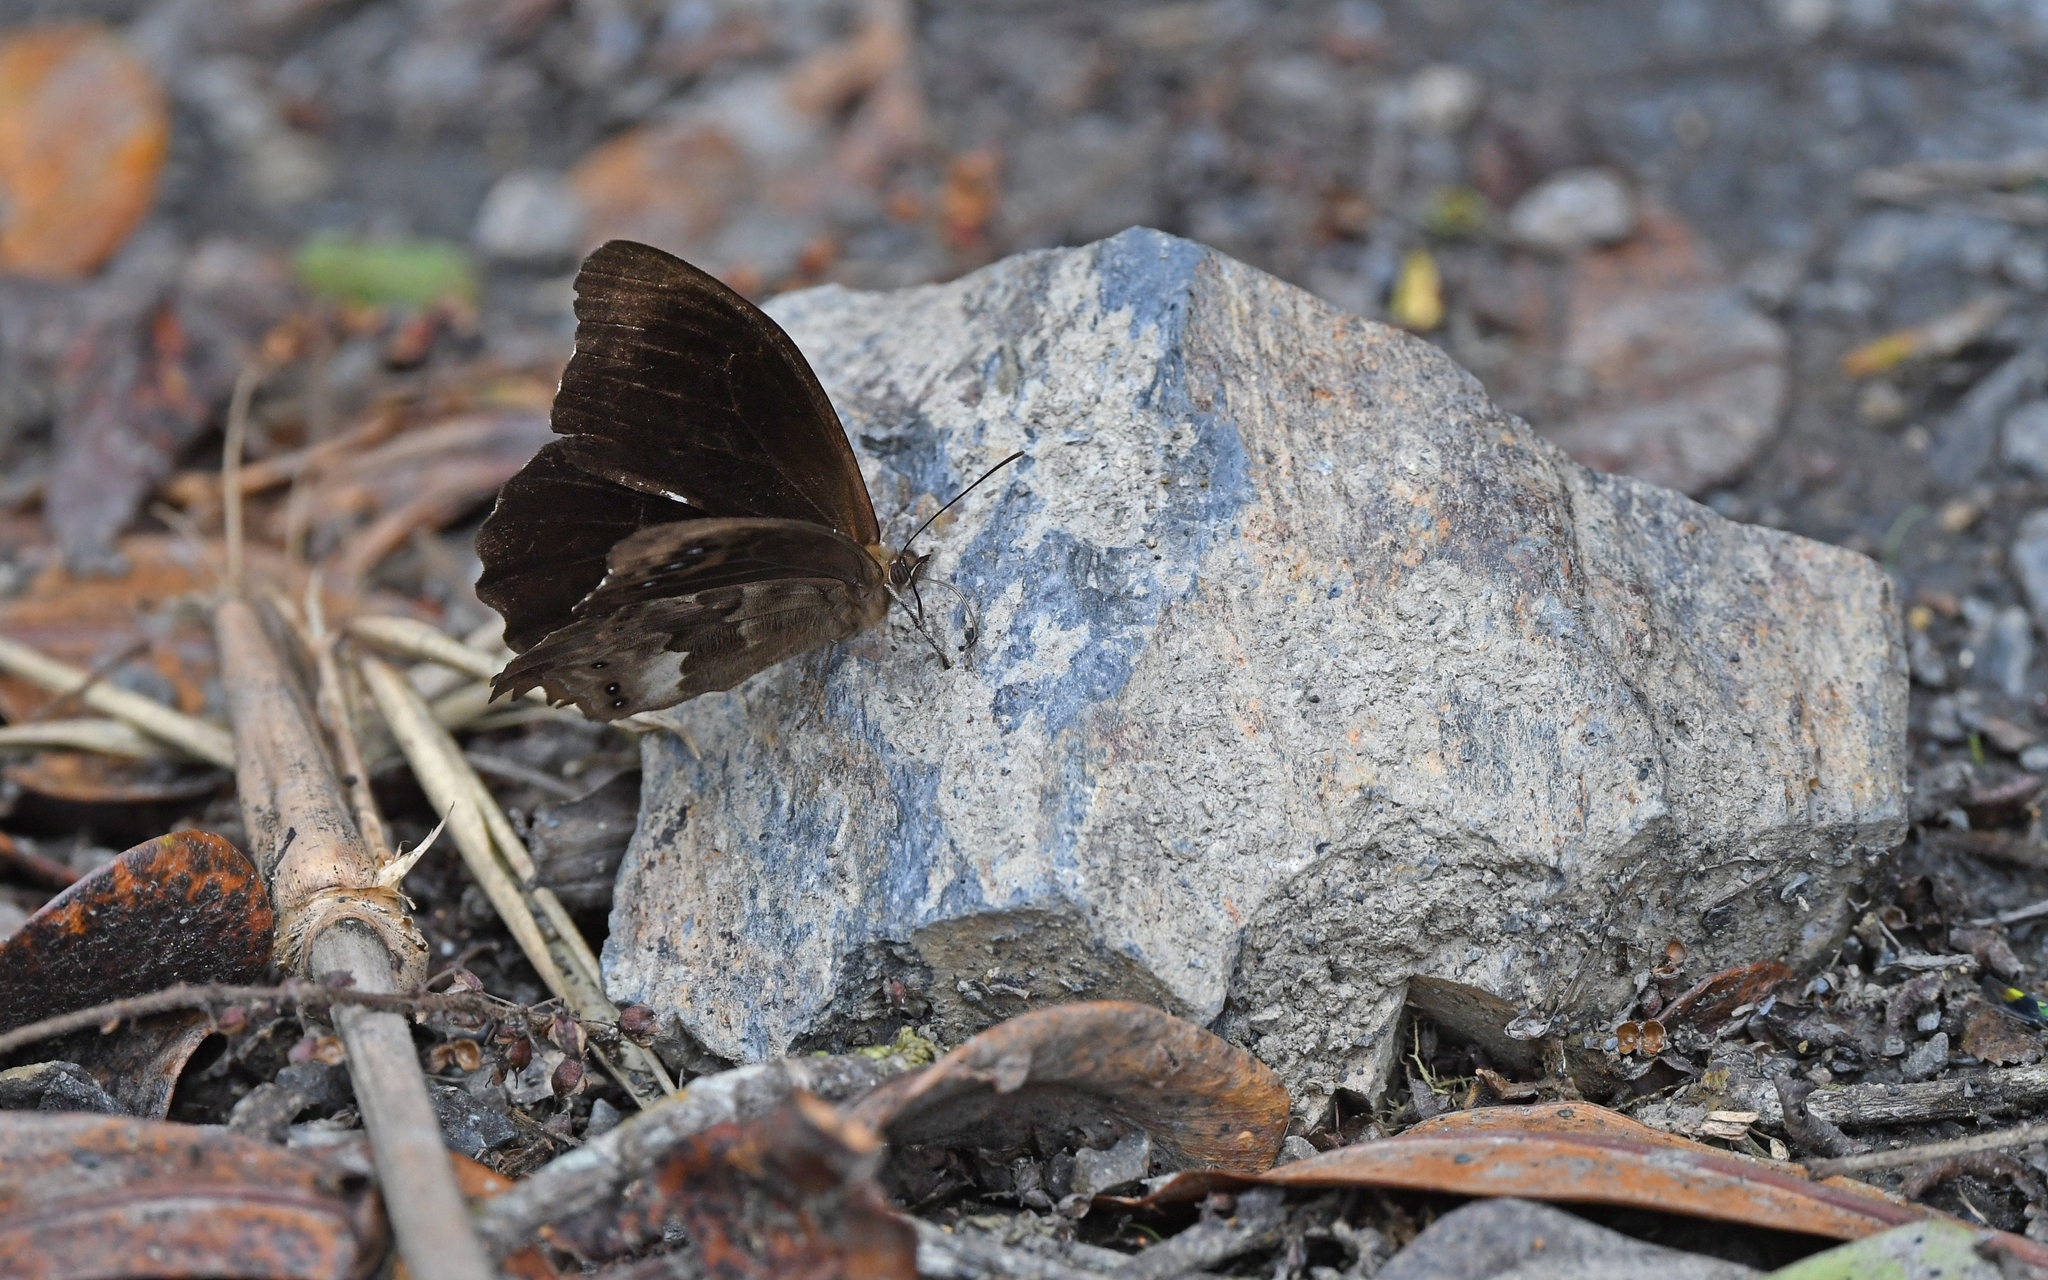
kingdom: Animalia
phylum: Arthropoda
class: Insecta
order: Lepidoptera
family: Nymphalidae
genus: Pronophila
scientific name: Pronophila cordillera
